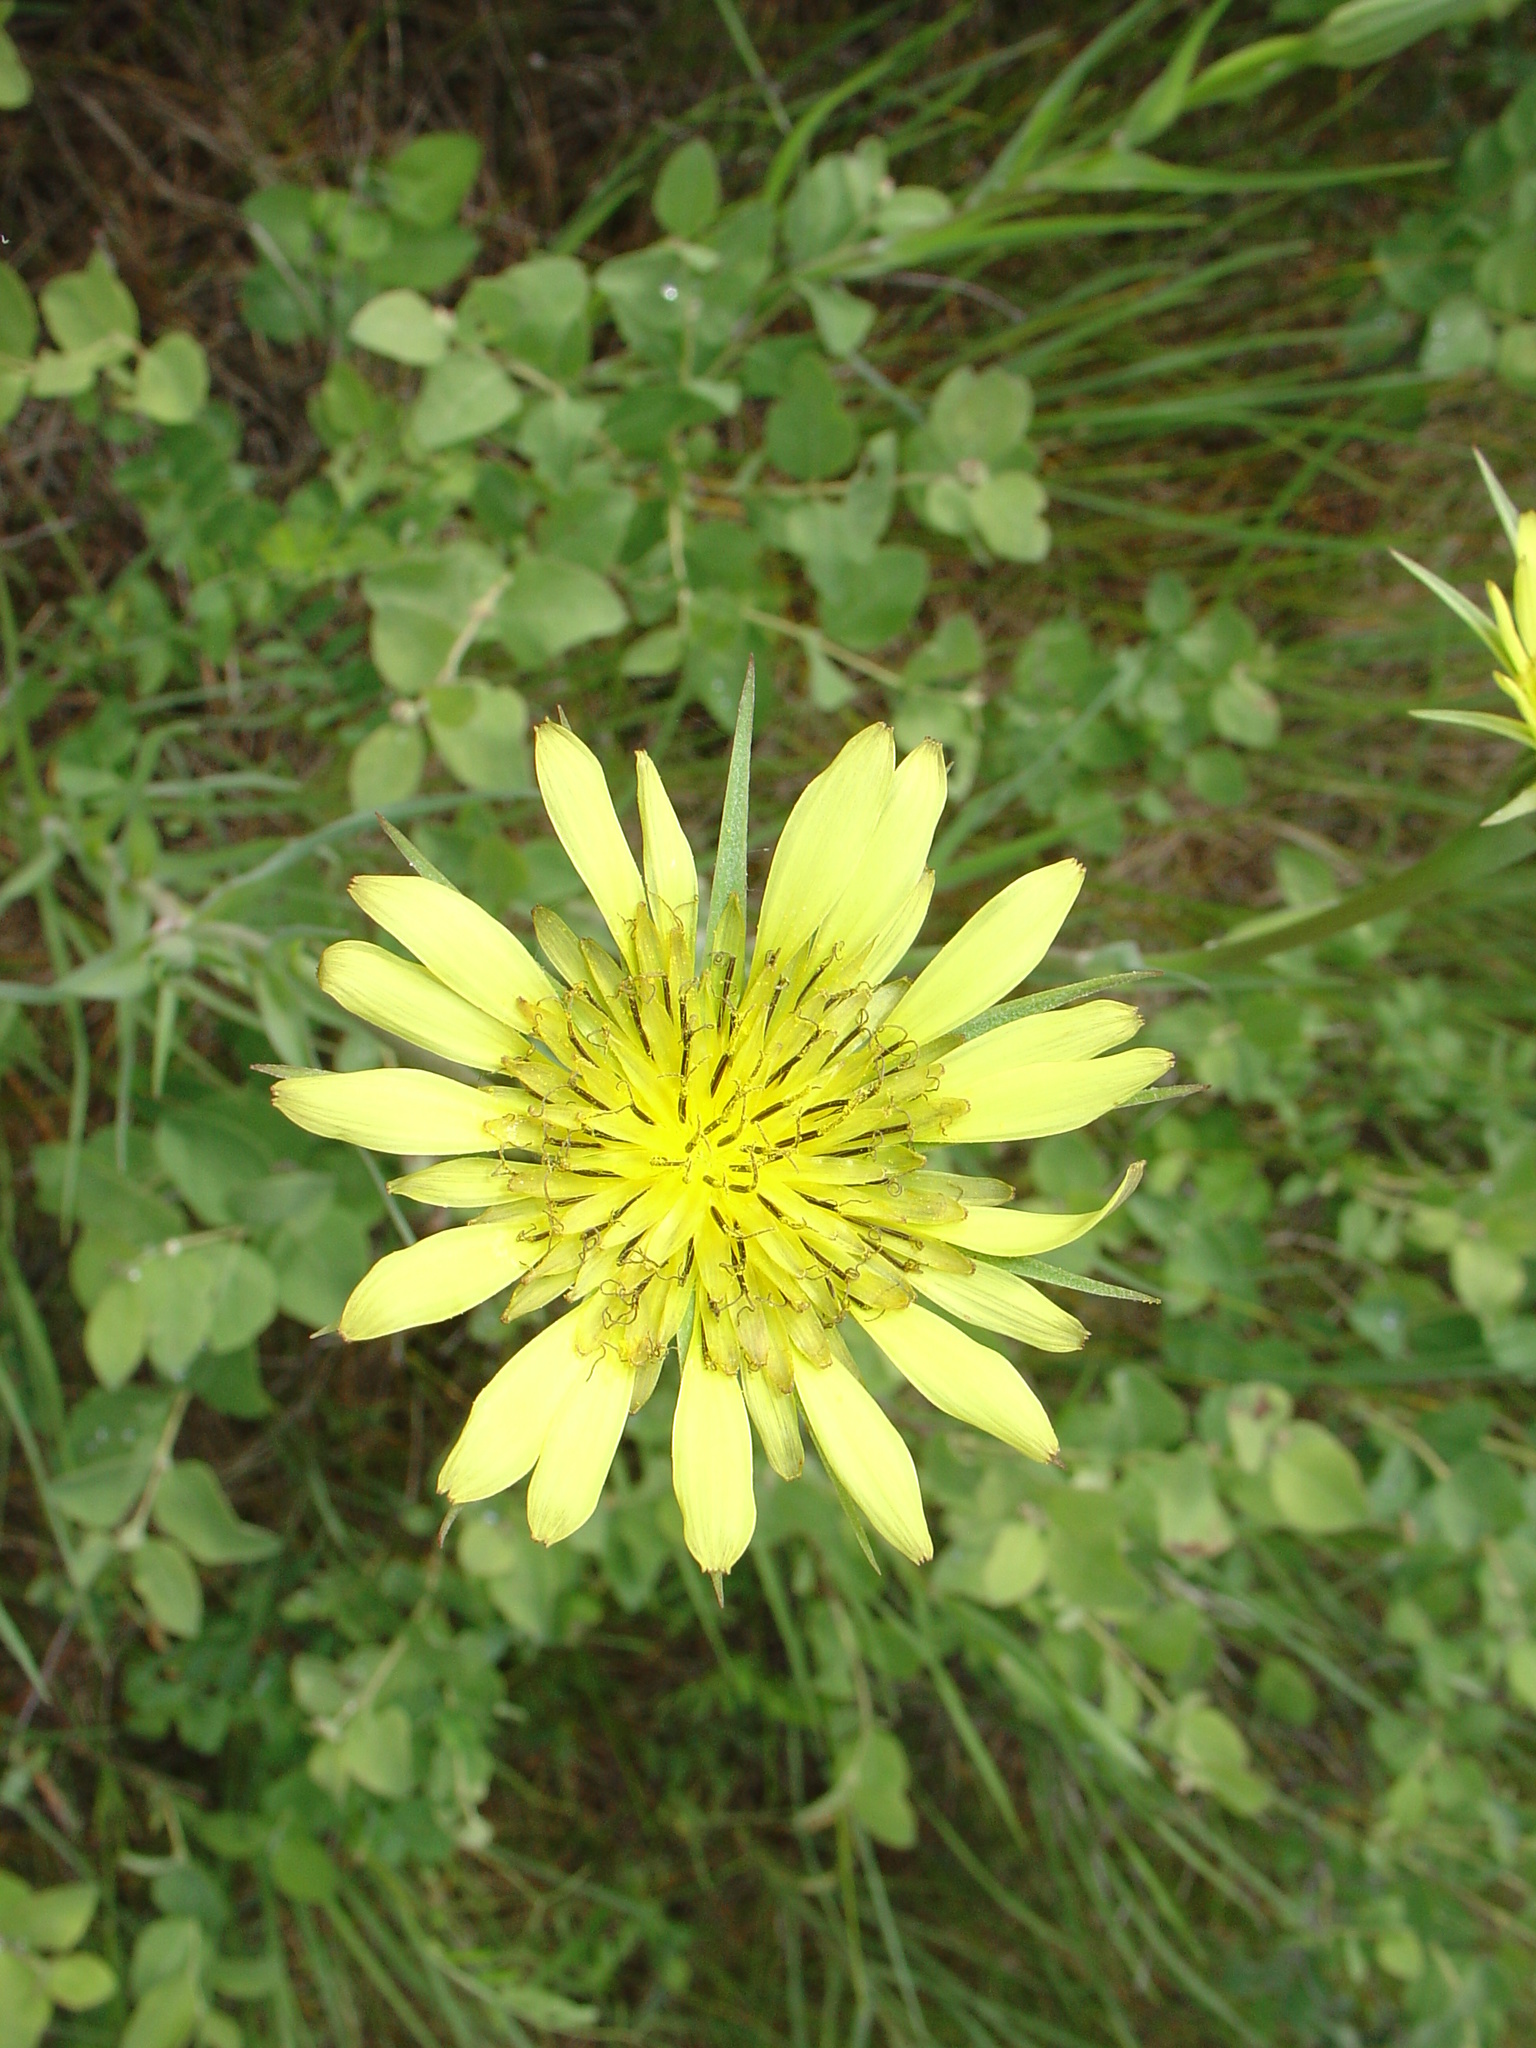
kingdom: Plantae
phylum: Tracheophyta
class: Magnoliopsida
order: Asterales
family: Asteraceae
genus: Tragopogon
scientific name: Tragopogon dubius
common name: Yellow salsify
